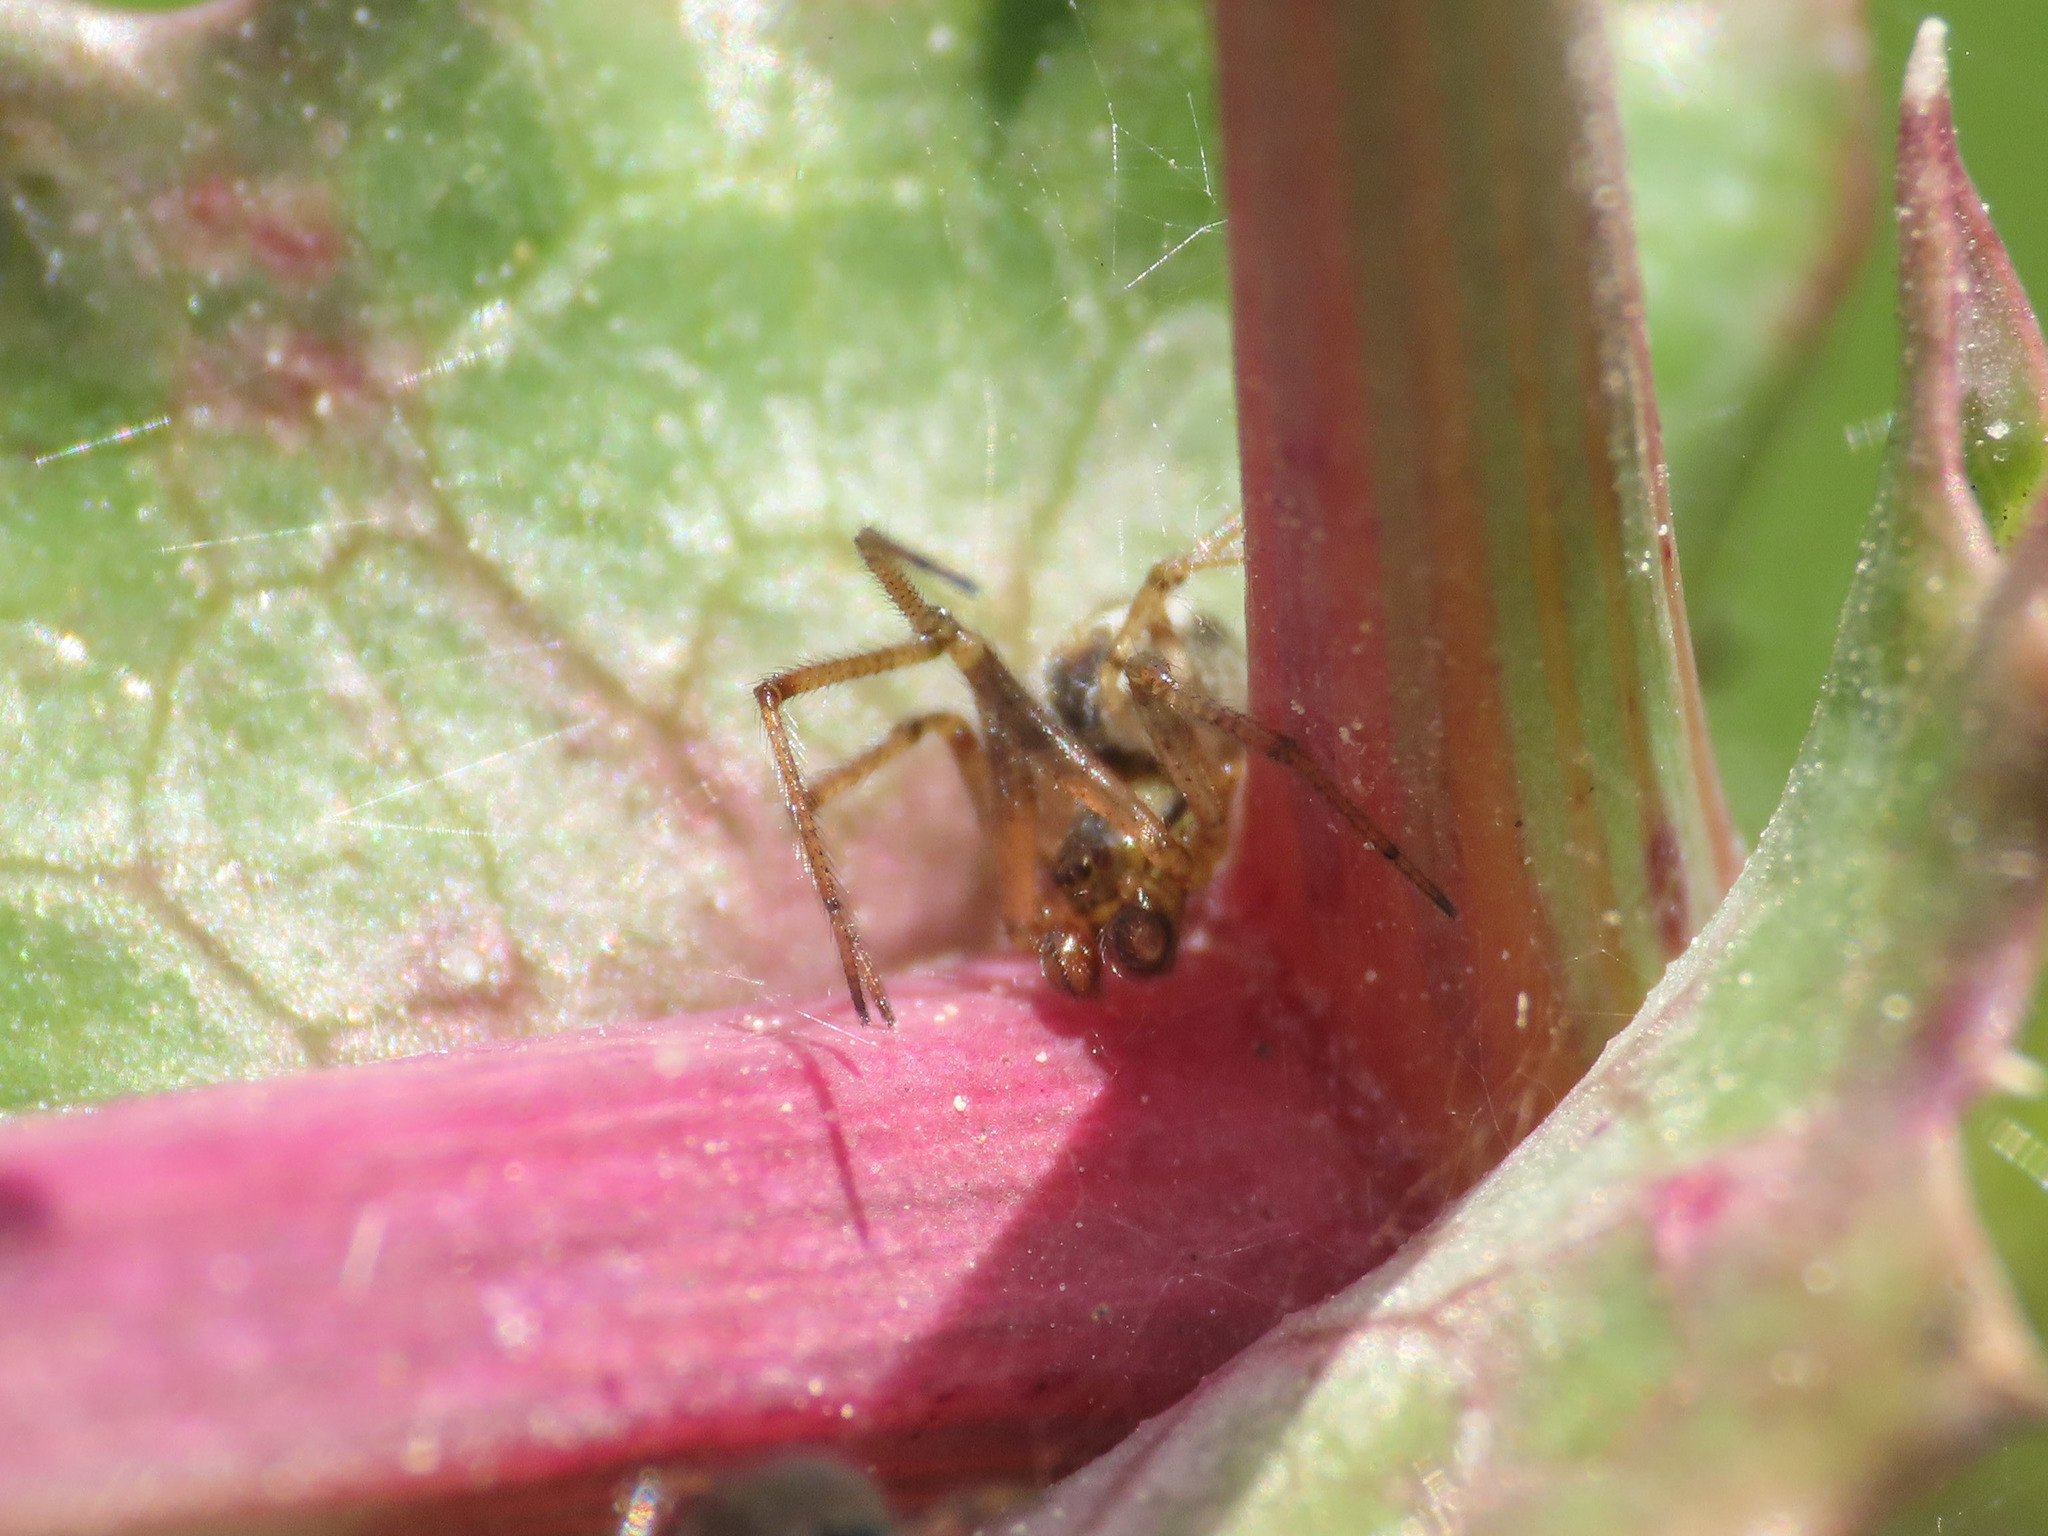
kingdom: Animalia
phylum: Arthropoda
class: Arachnida
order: Araneae
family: Theridiidae
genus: Kochiura
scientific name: Kochiura aulica
